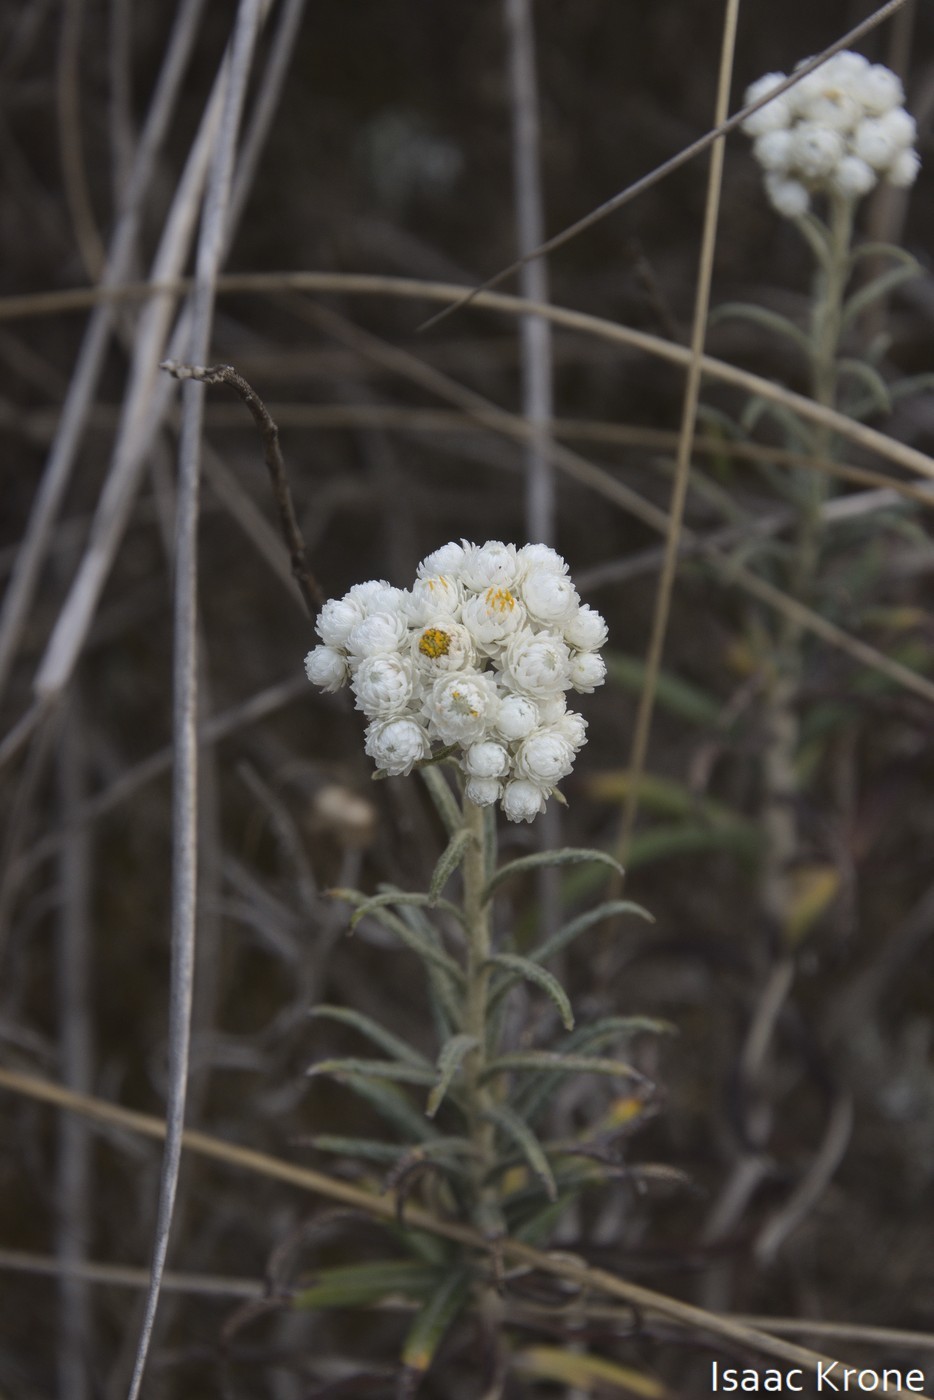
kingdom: Plantae
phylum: Tracheophyta
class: Magnoliopsida
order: Asterales
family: Asteraceae
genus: Anaphalis
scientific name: Anaphalis margaritacea
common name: Pearly everlasting
